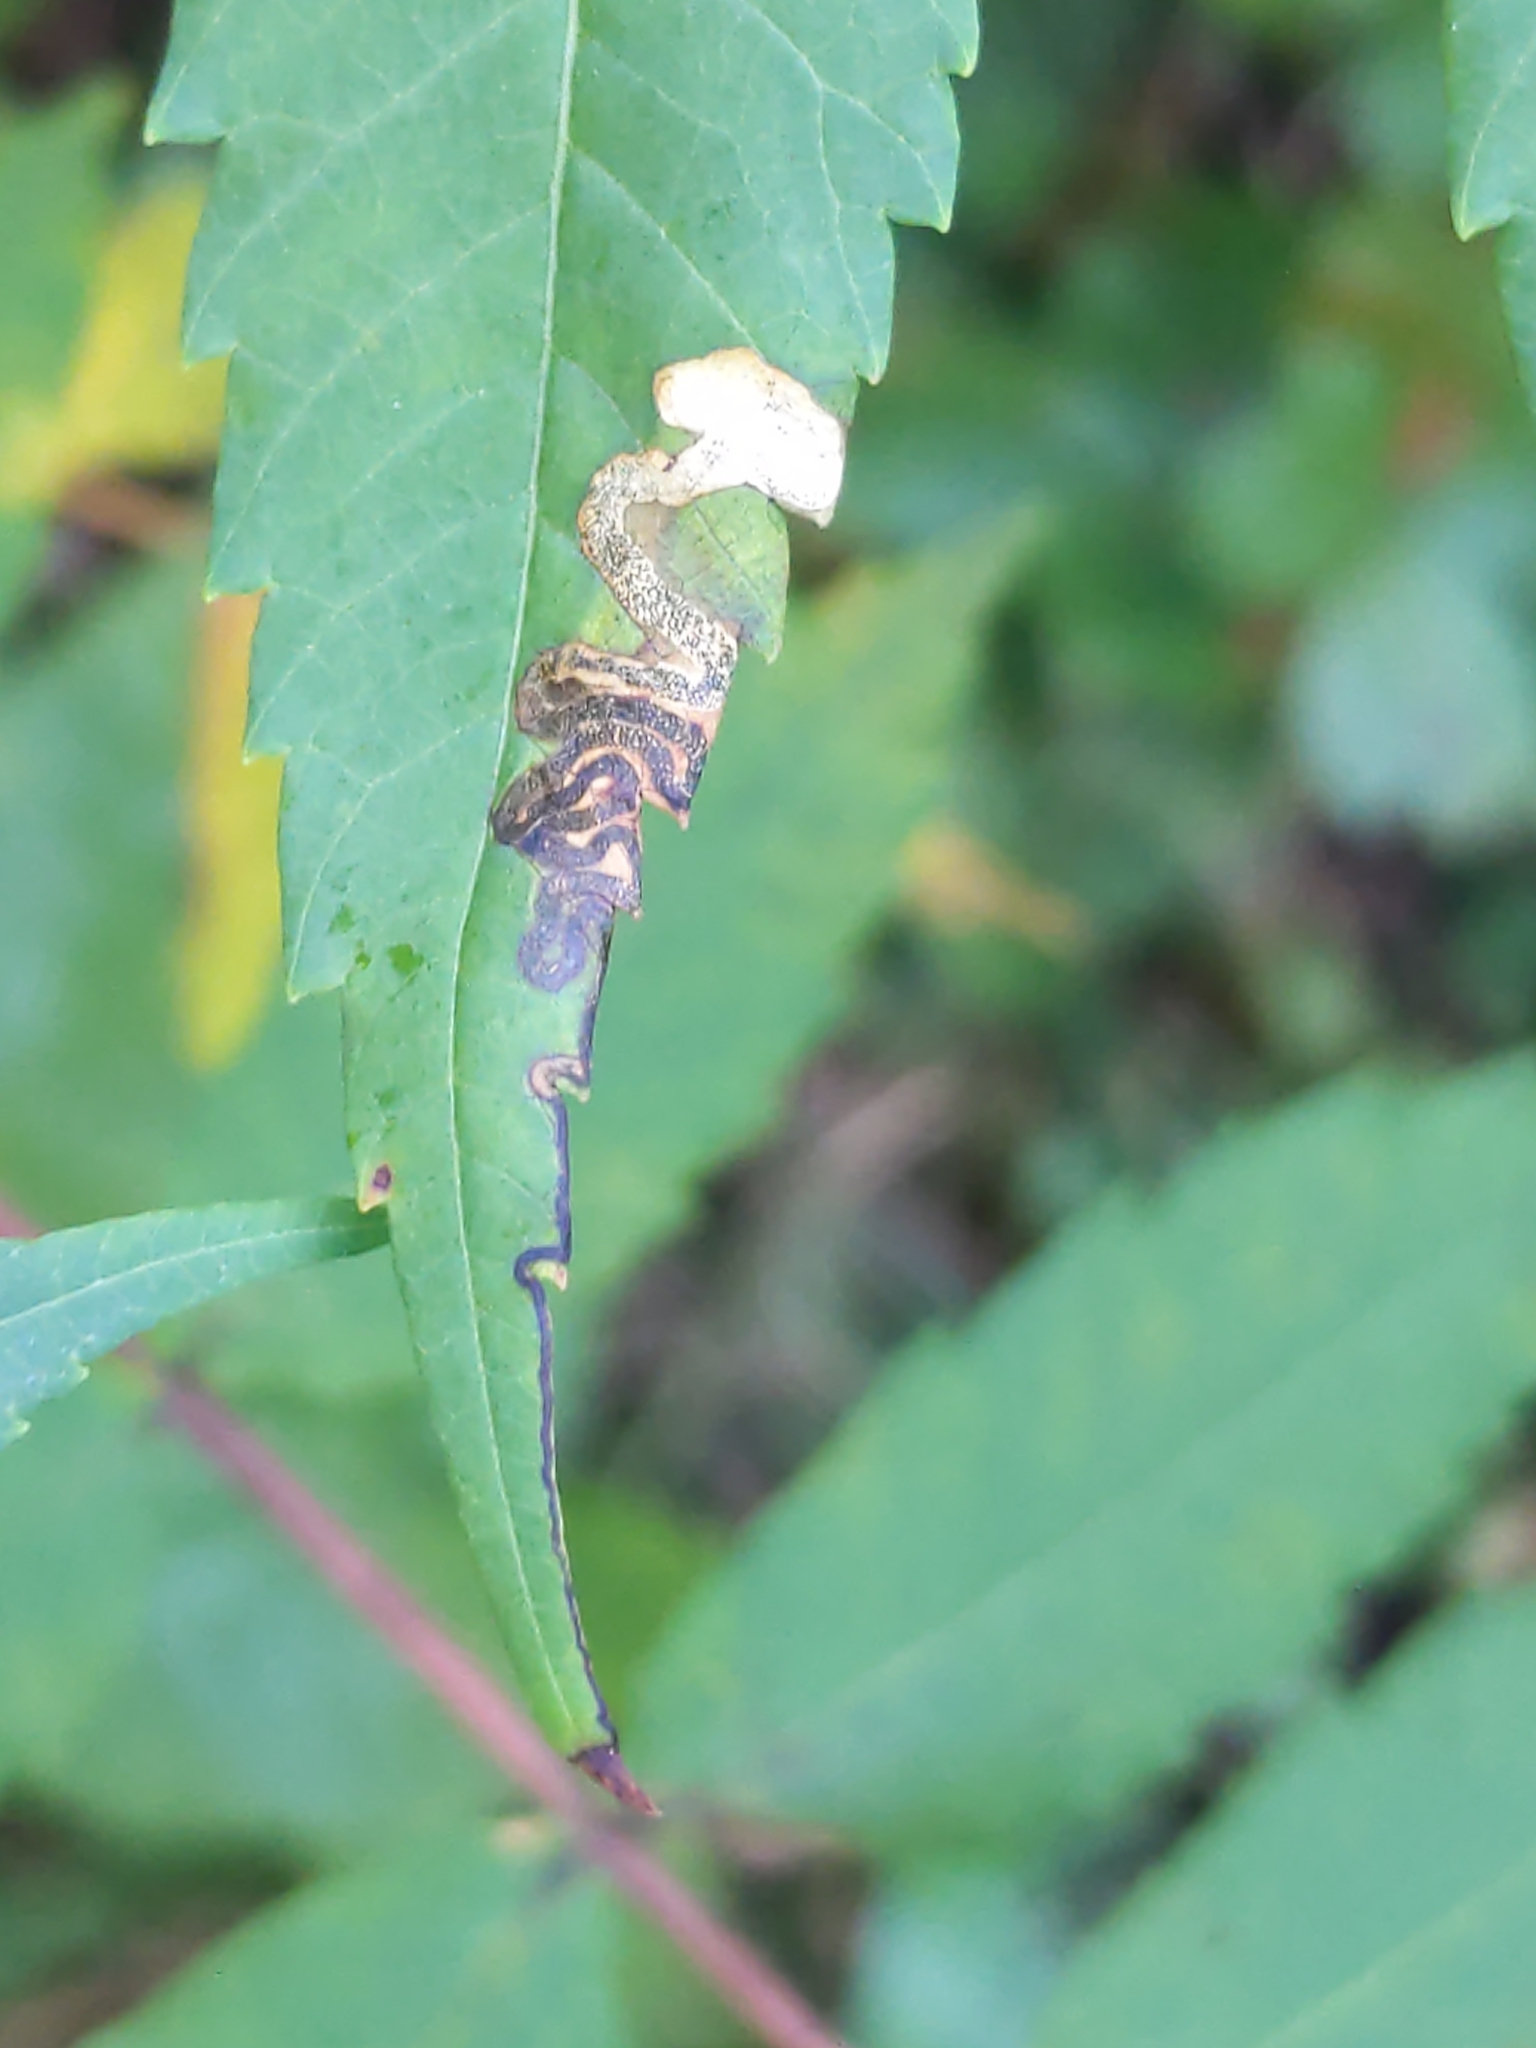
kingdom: Animalia
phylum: Arthropoda
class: Insecta
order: Lepidoptera
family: Nepticulidae
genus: Stigmella
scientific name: Stigmella intermedia
